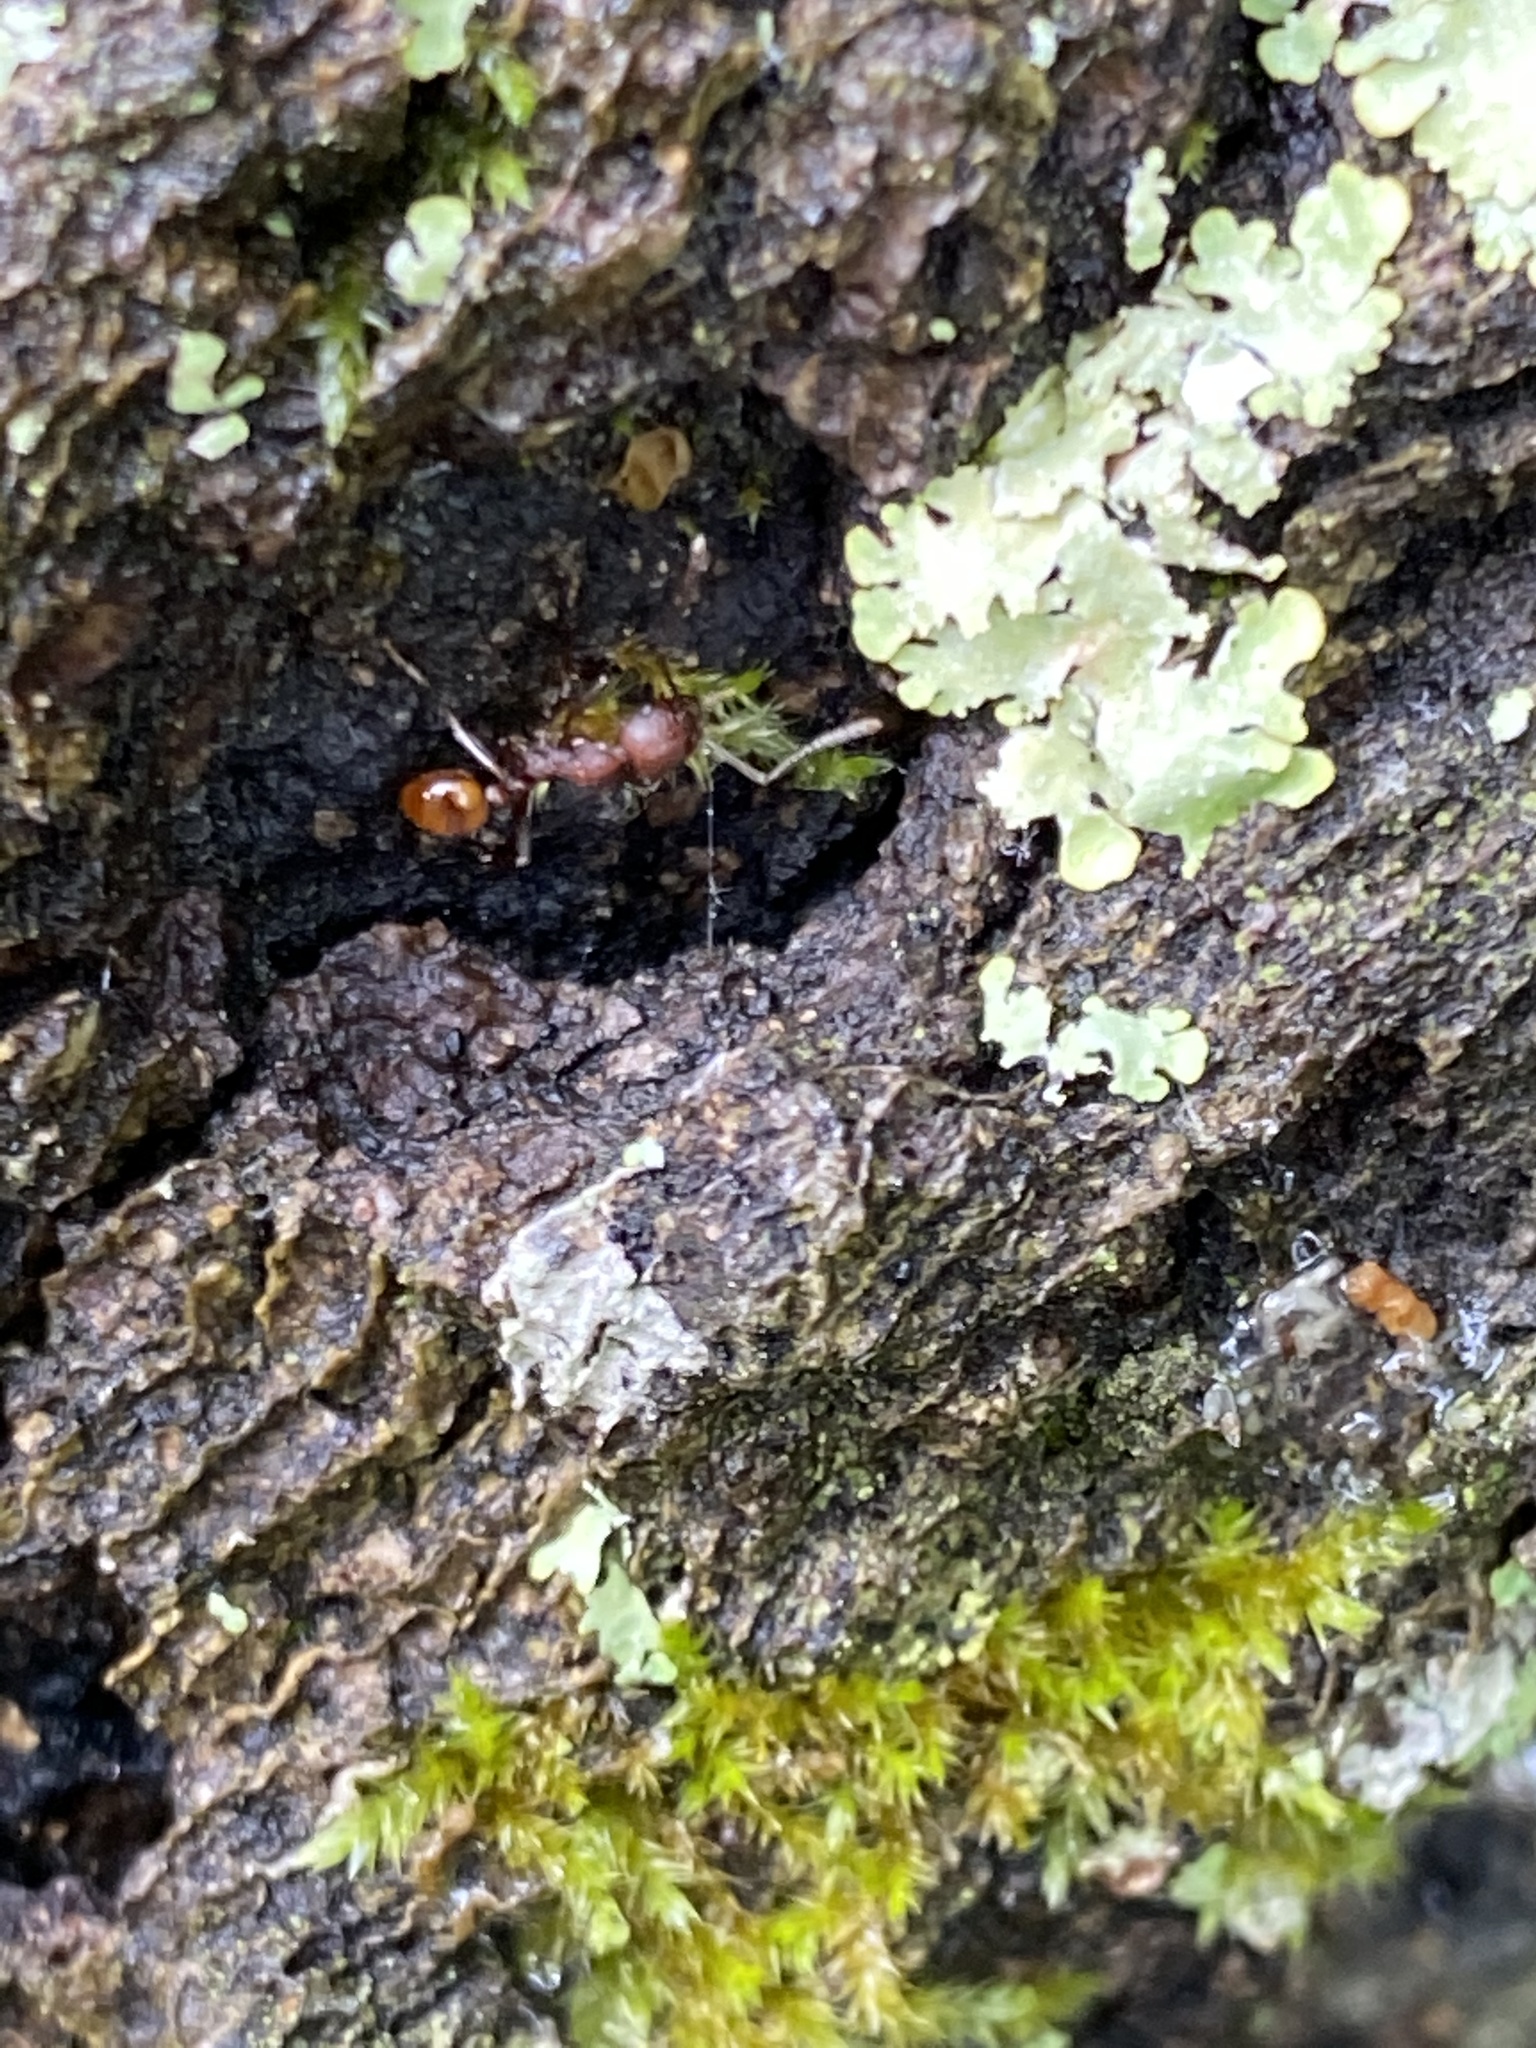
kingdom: Animalia
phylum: Arthropoda
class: Insecta
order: Hymenoptera
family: Formicidae
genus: Aphaenogaster
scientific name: Aphaenogaster tennesseensis
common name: Tennessee thread-waisted ant
